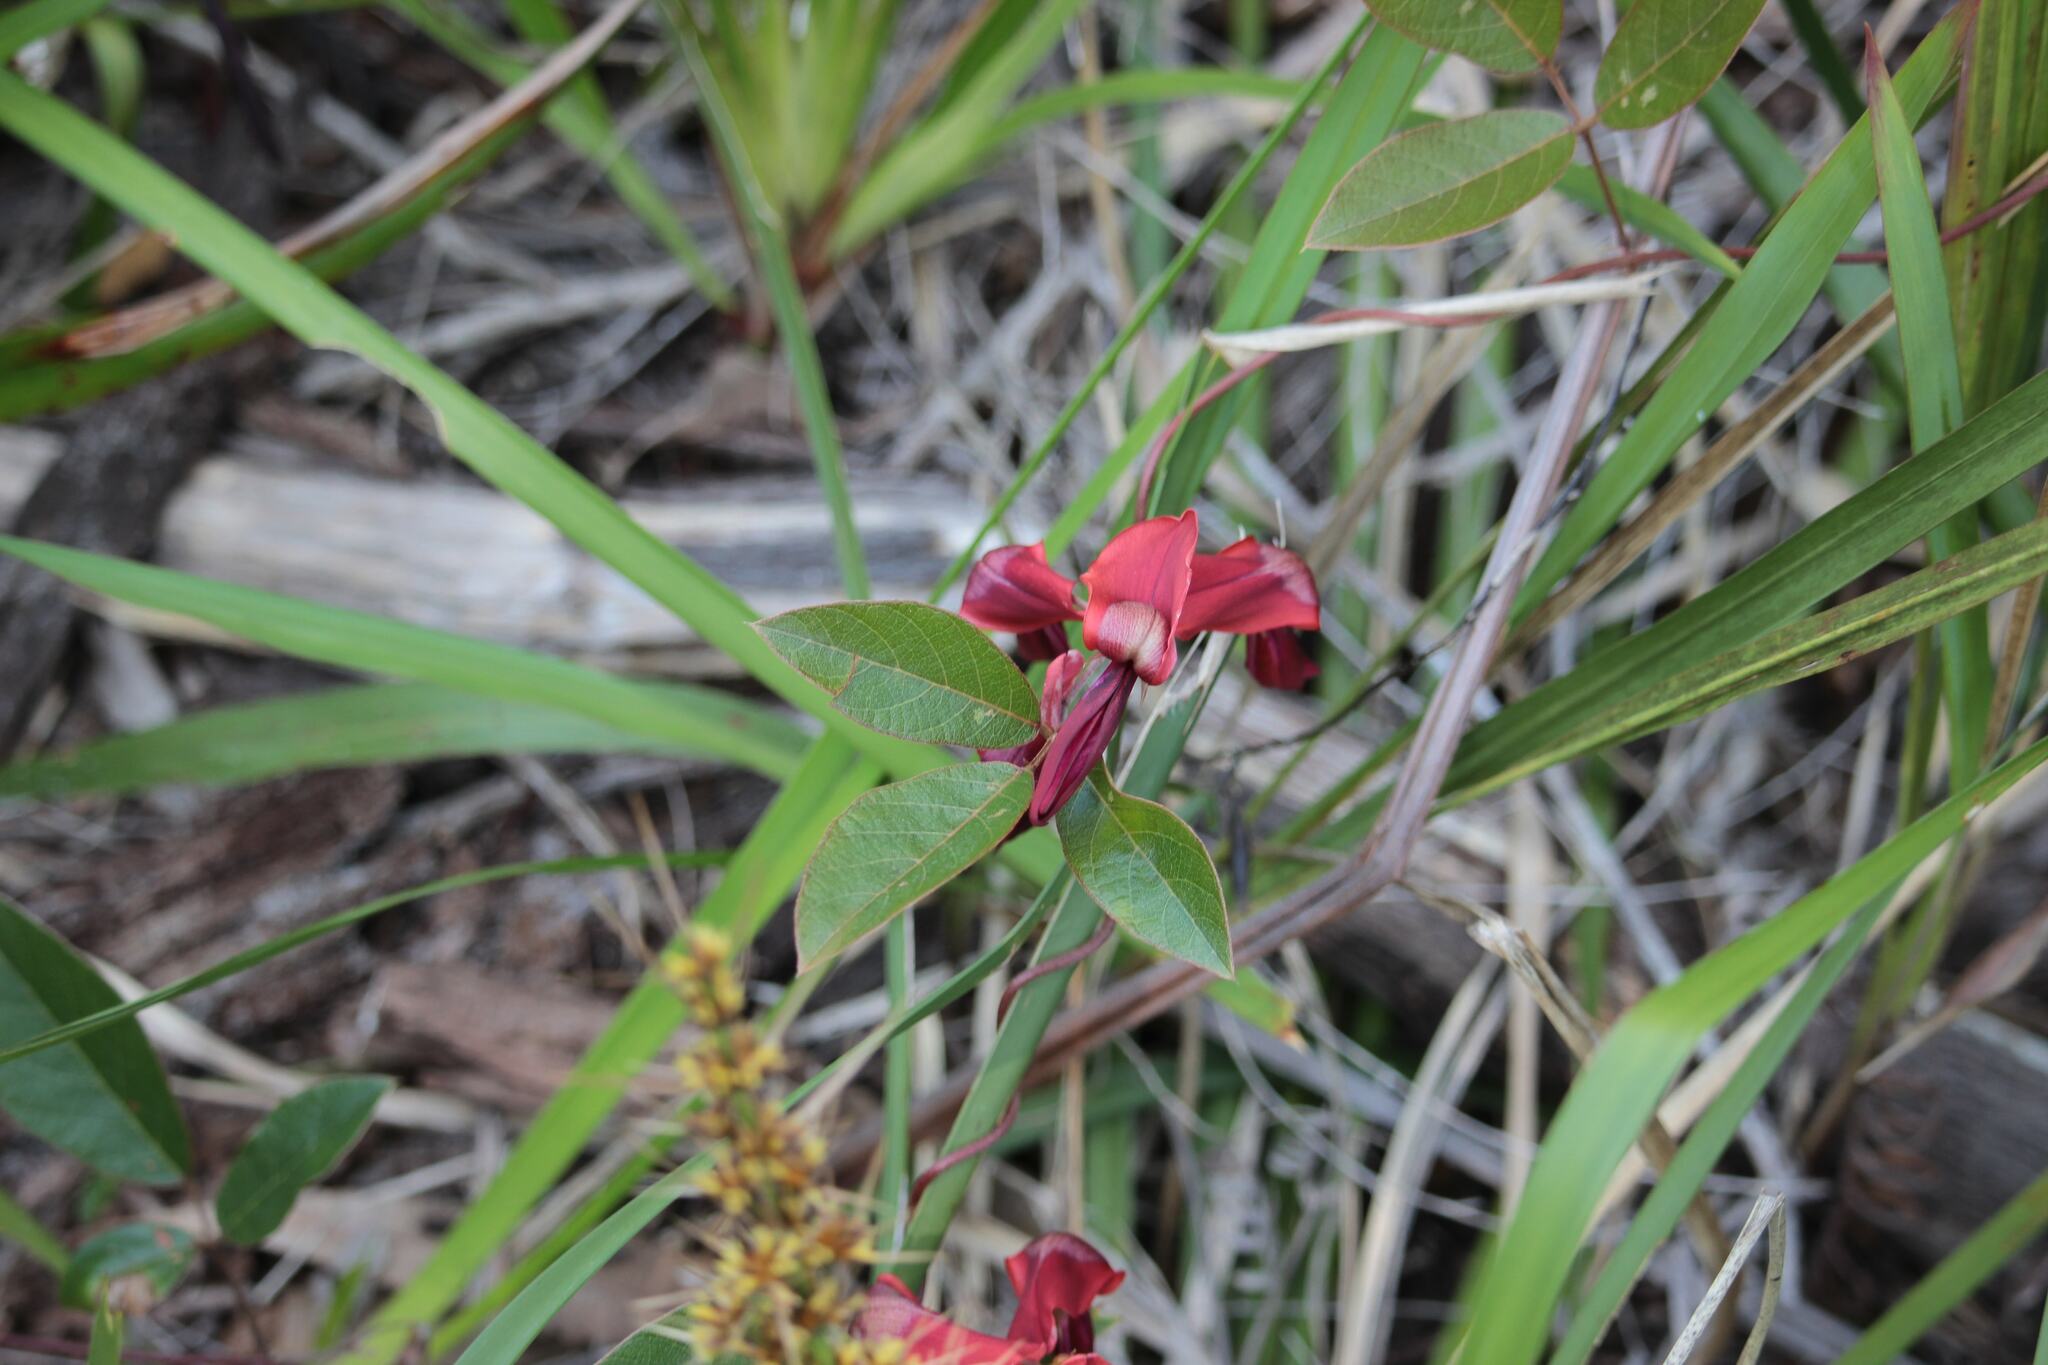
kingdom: Plantae
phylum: Tracheophyta
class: Magnoliopsida
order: Fabales
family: Fabaceae
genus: Kennedia
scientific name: Kennedia rubicunda
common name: Red kennedy-pea
